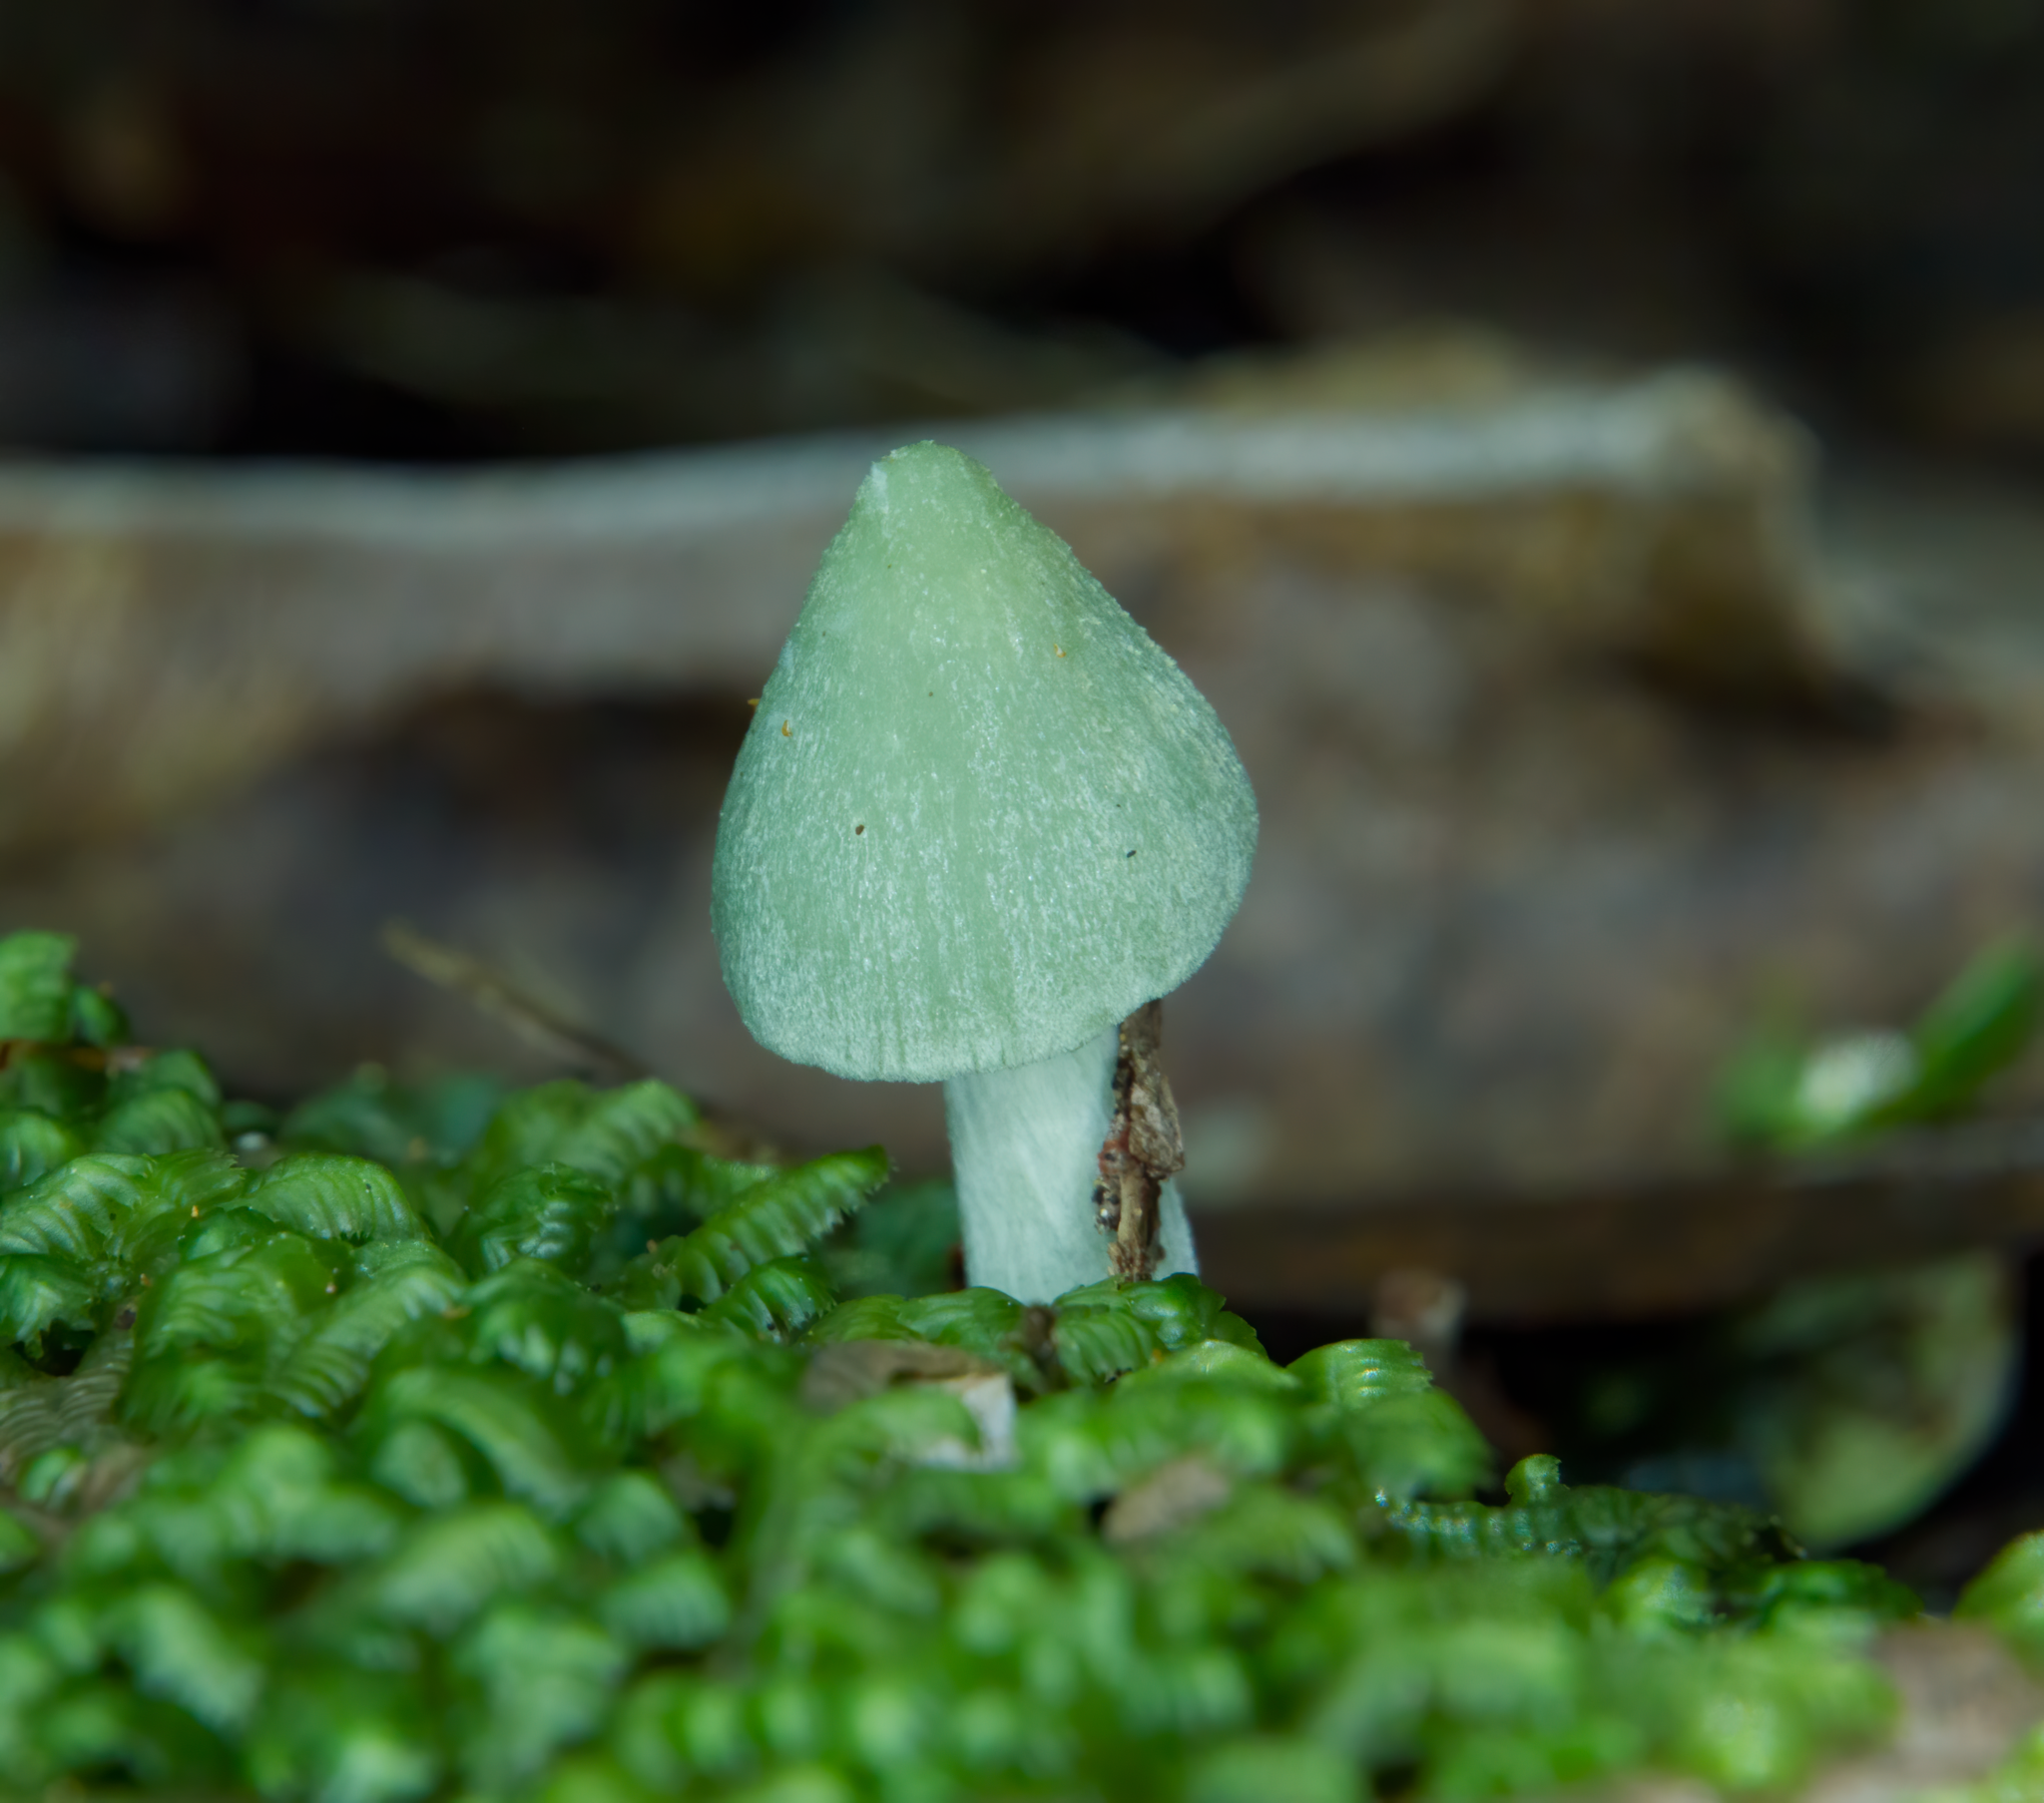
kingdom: Fungi
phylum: Basidiomycota
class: Agaricomycetes
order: Agaricales
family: Entolomataceae
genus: Entoloma
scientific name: Entoloma hochstetteri
